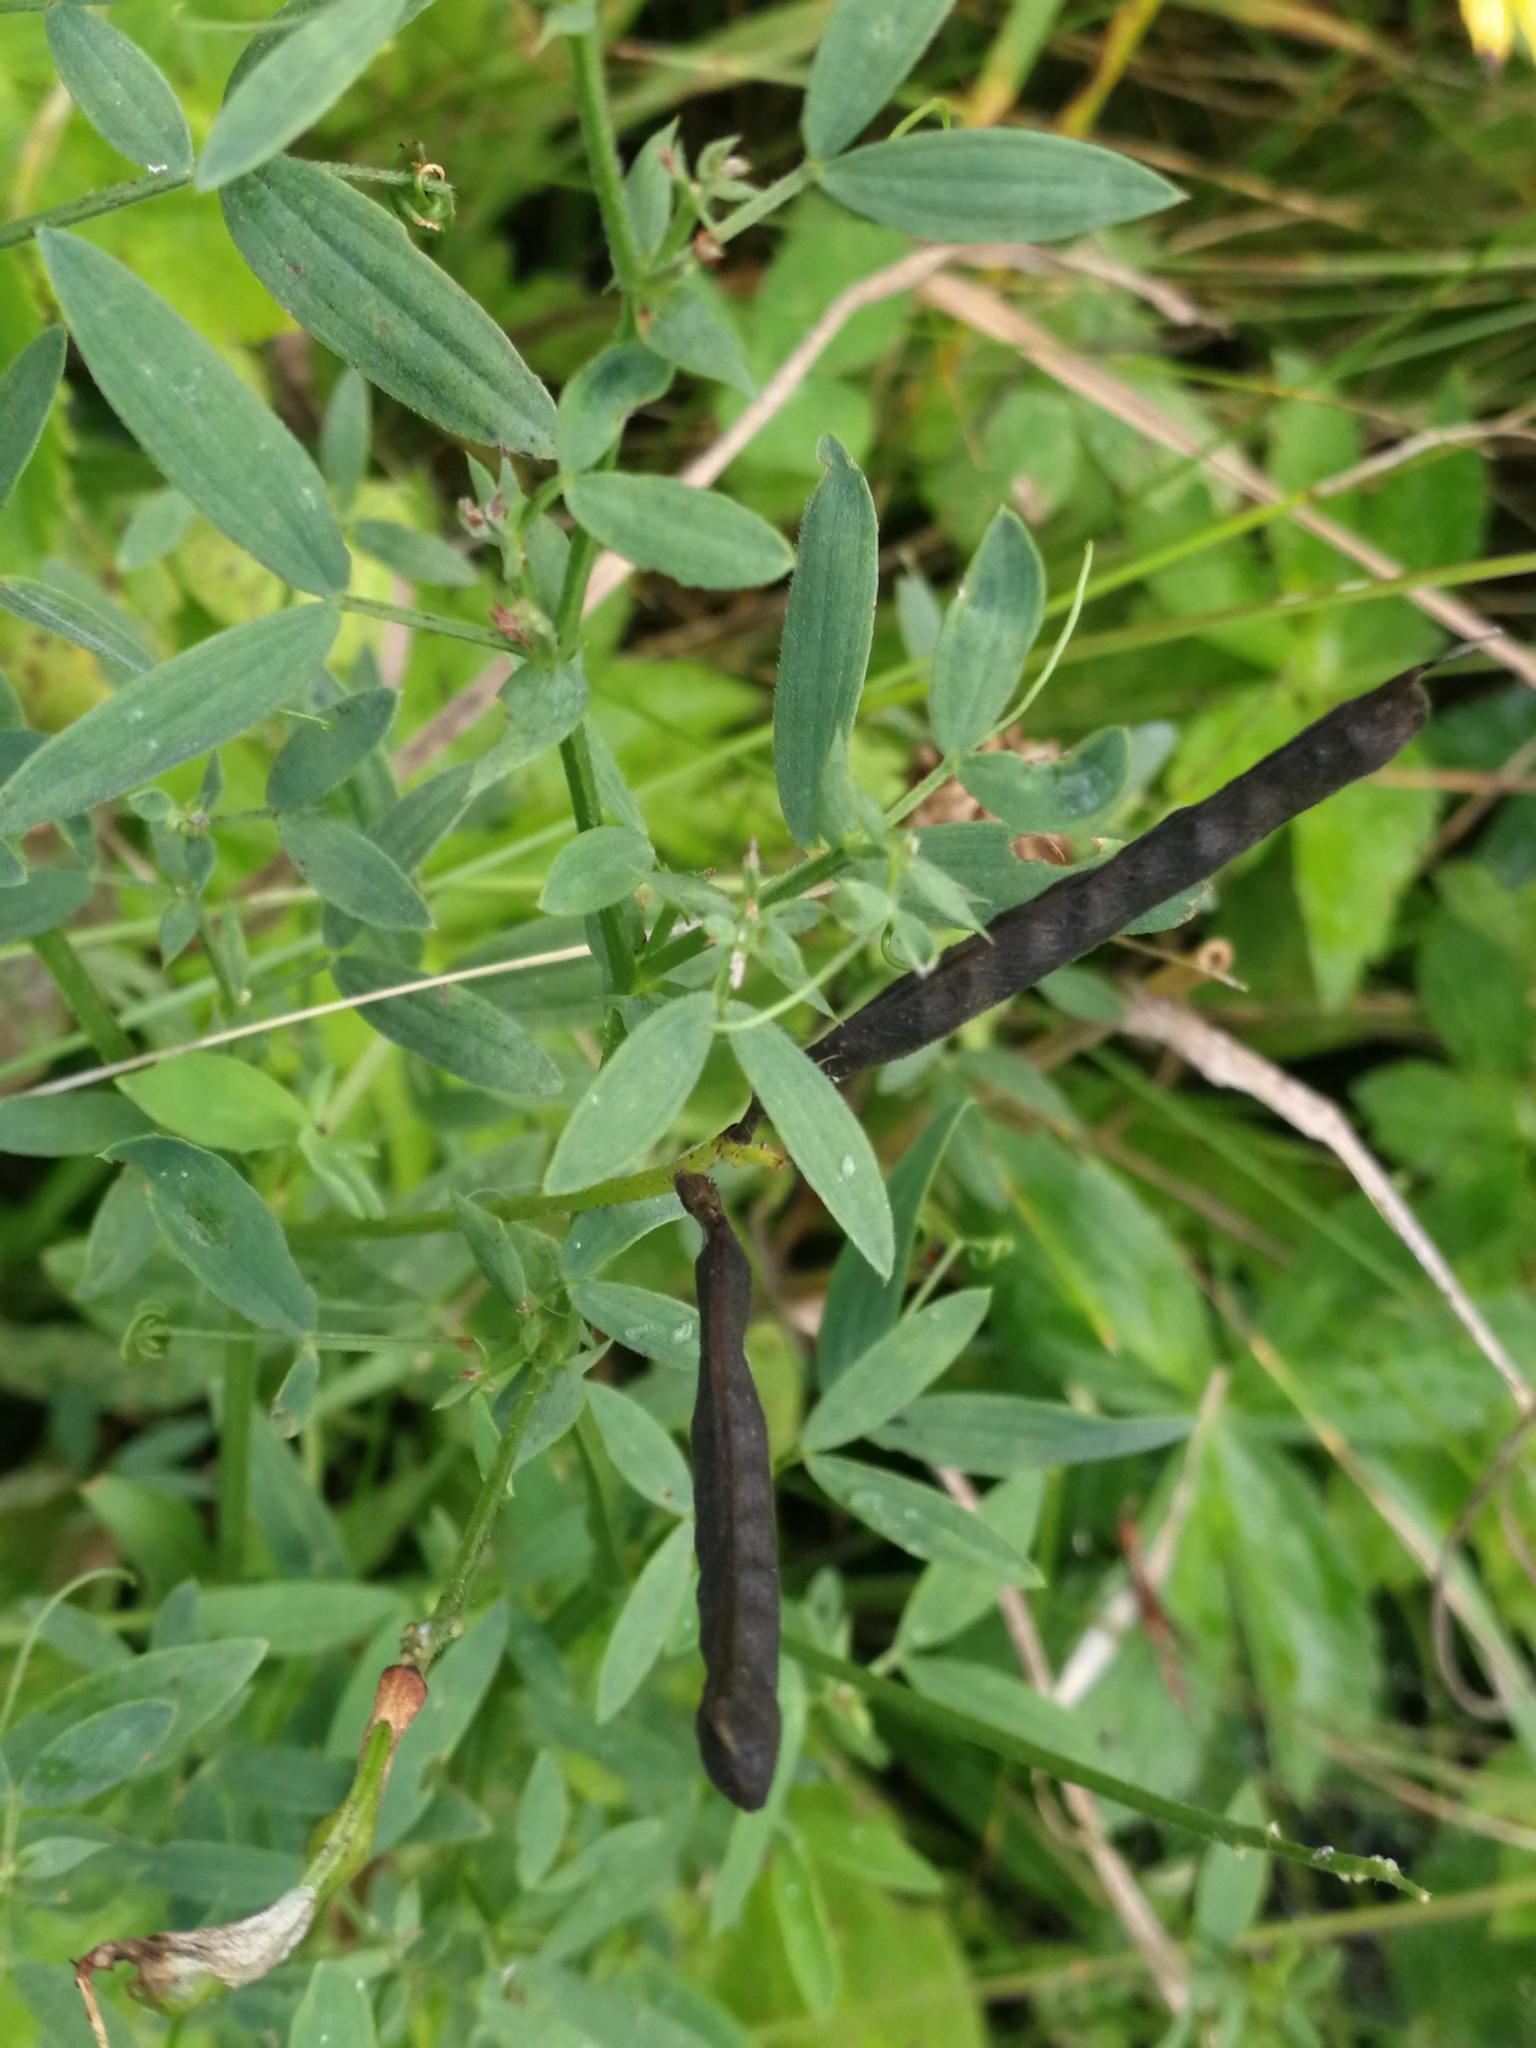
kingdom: Plantae
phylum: Tracheophyta
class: Magnoliopsida
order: Fabales
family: Fabaceae
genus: Lathyrus
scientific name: Lathyrus pratensis
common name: Meadow vetchling
